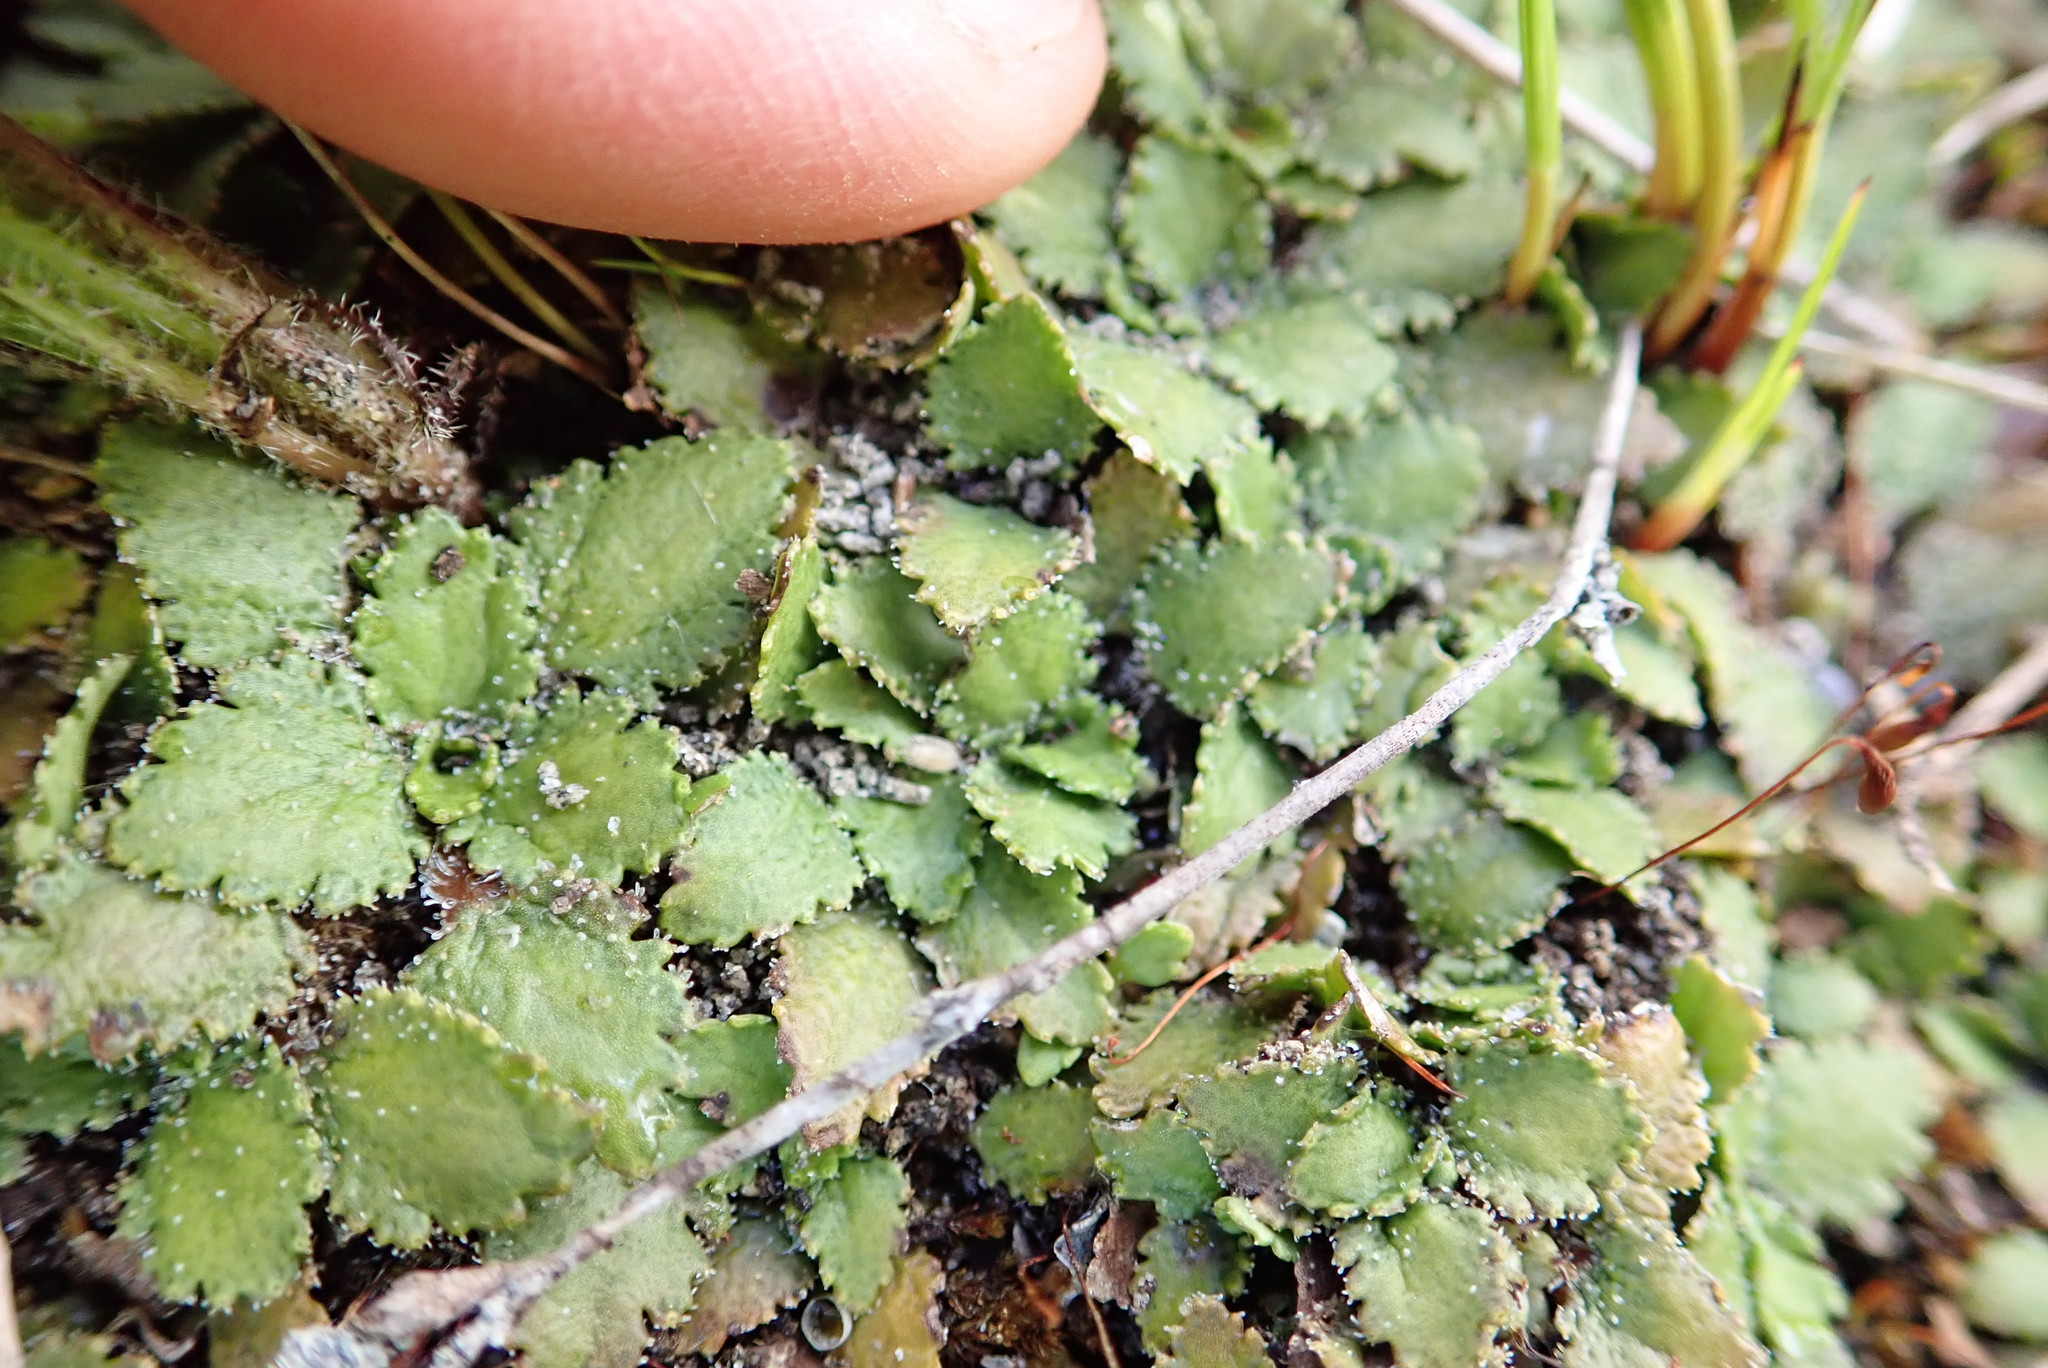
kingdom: Plantae
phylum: Tracheophyta
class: Magnoliopsida
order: Gunnerales
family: Gunneraceae
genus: Gunnera
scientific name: Gunnera dentata
